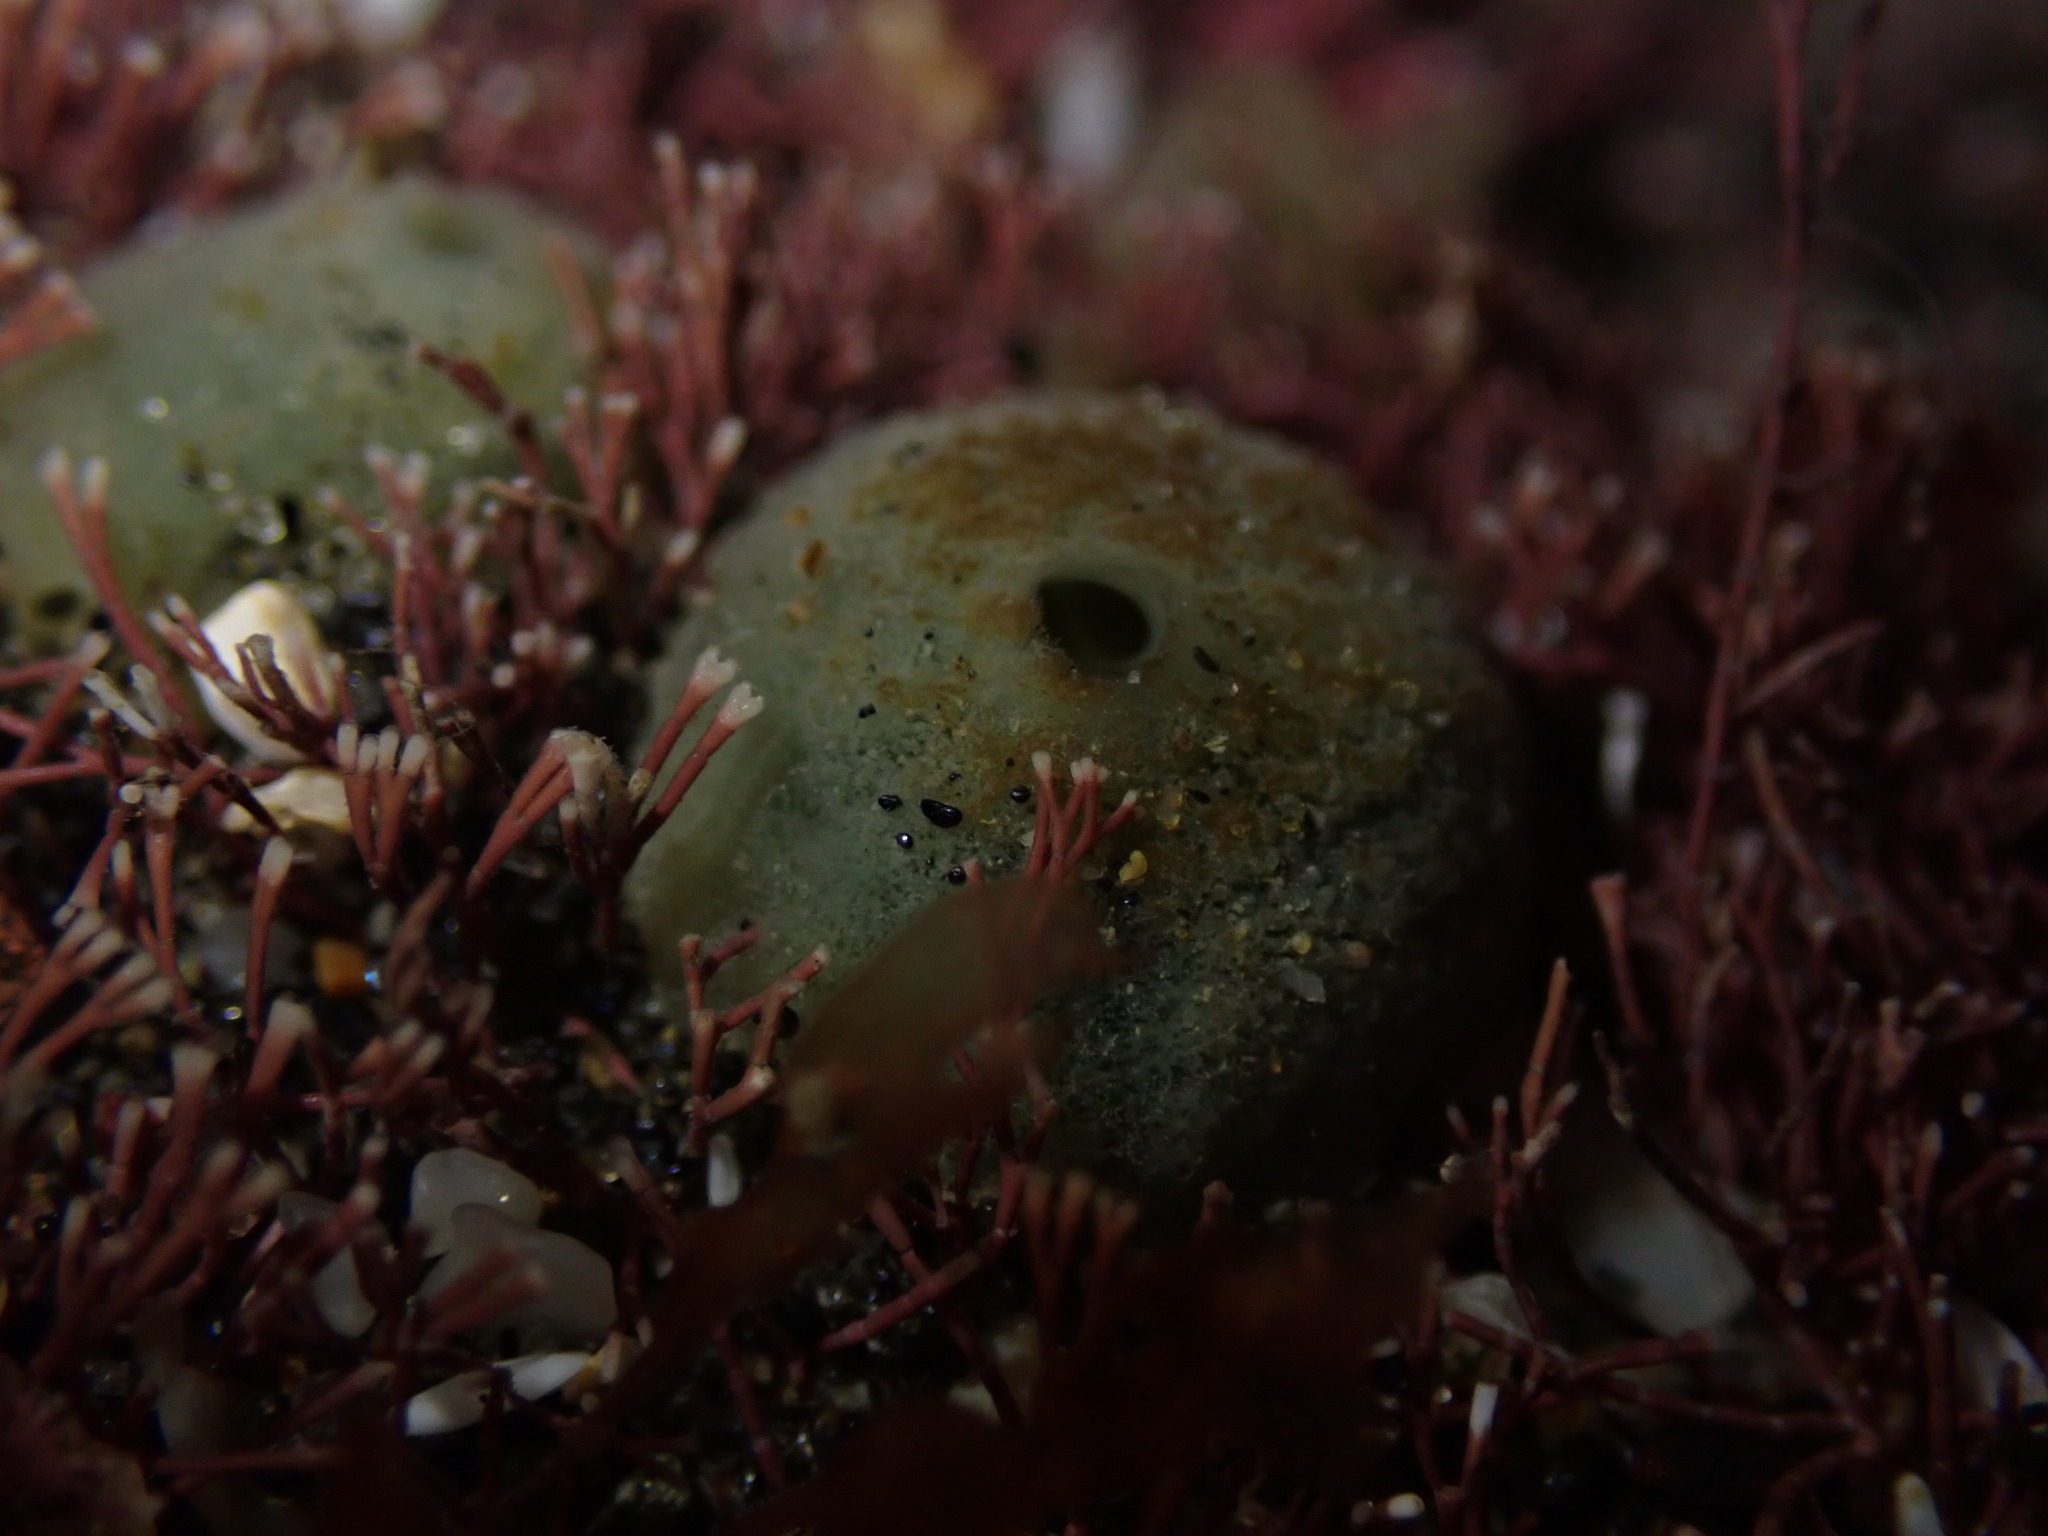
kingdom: Animalia
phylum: Porifera
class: Demospongiae
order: Suberitida
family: Suberitidae
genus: Suberites
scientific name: Suberites perfectus
